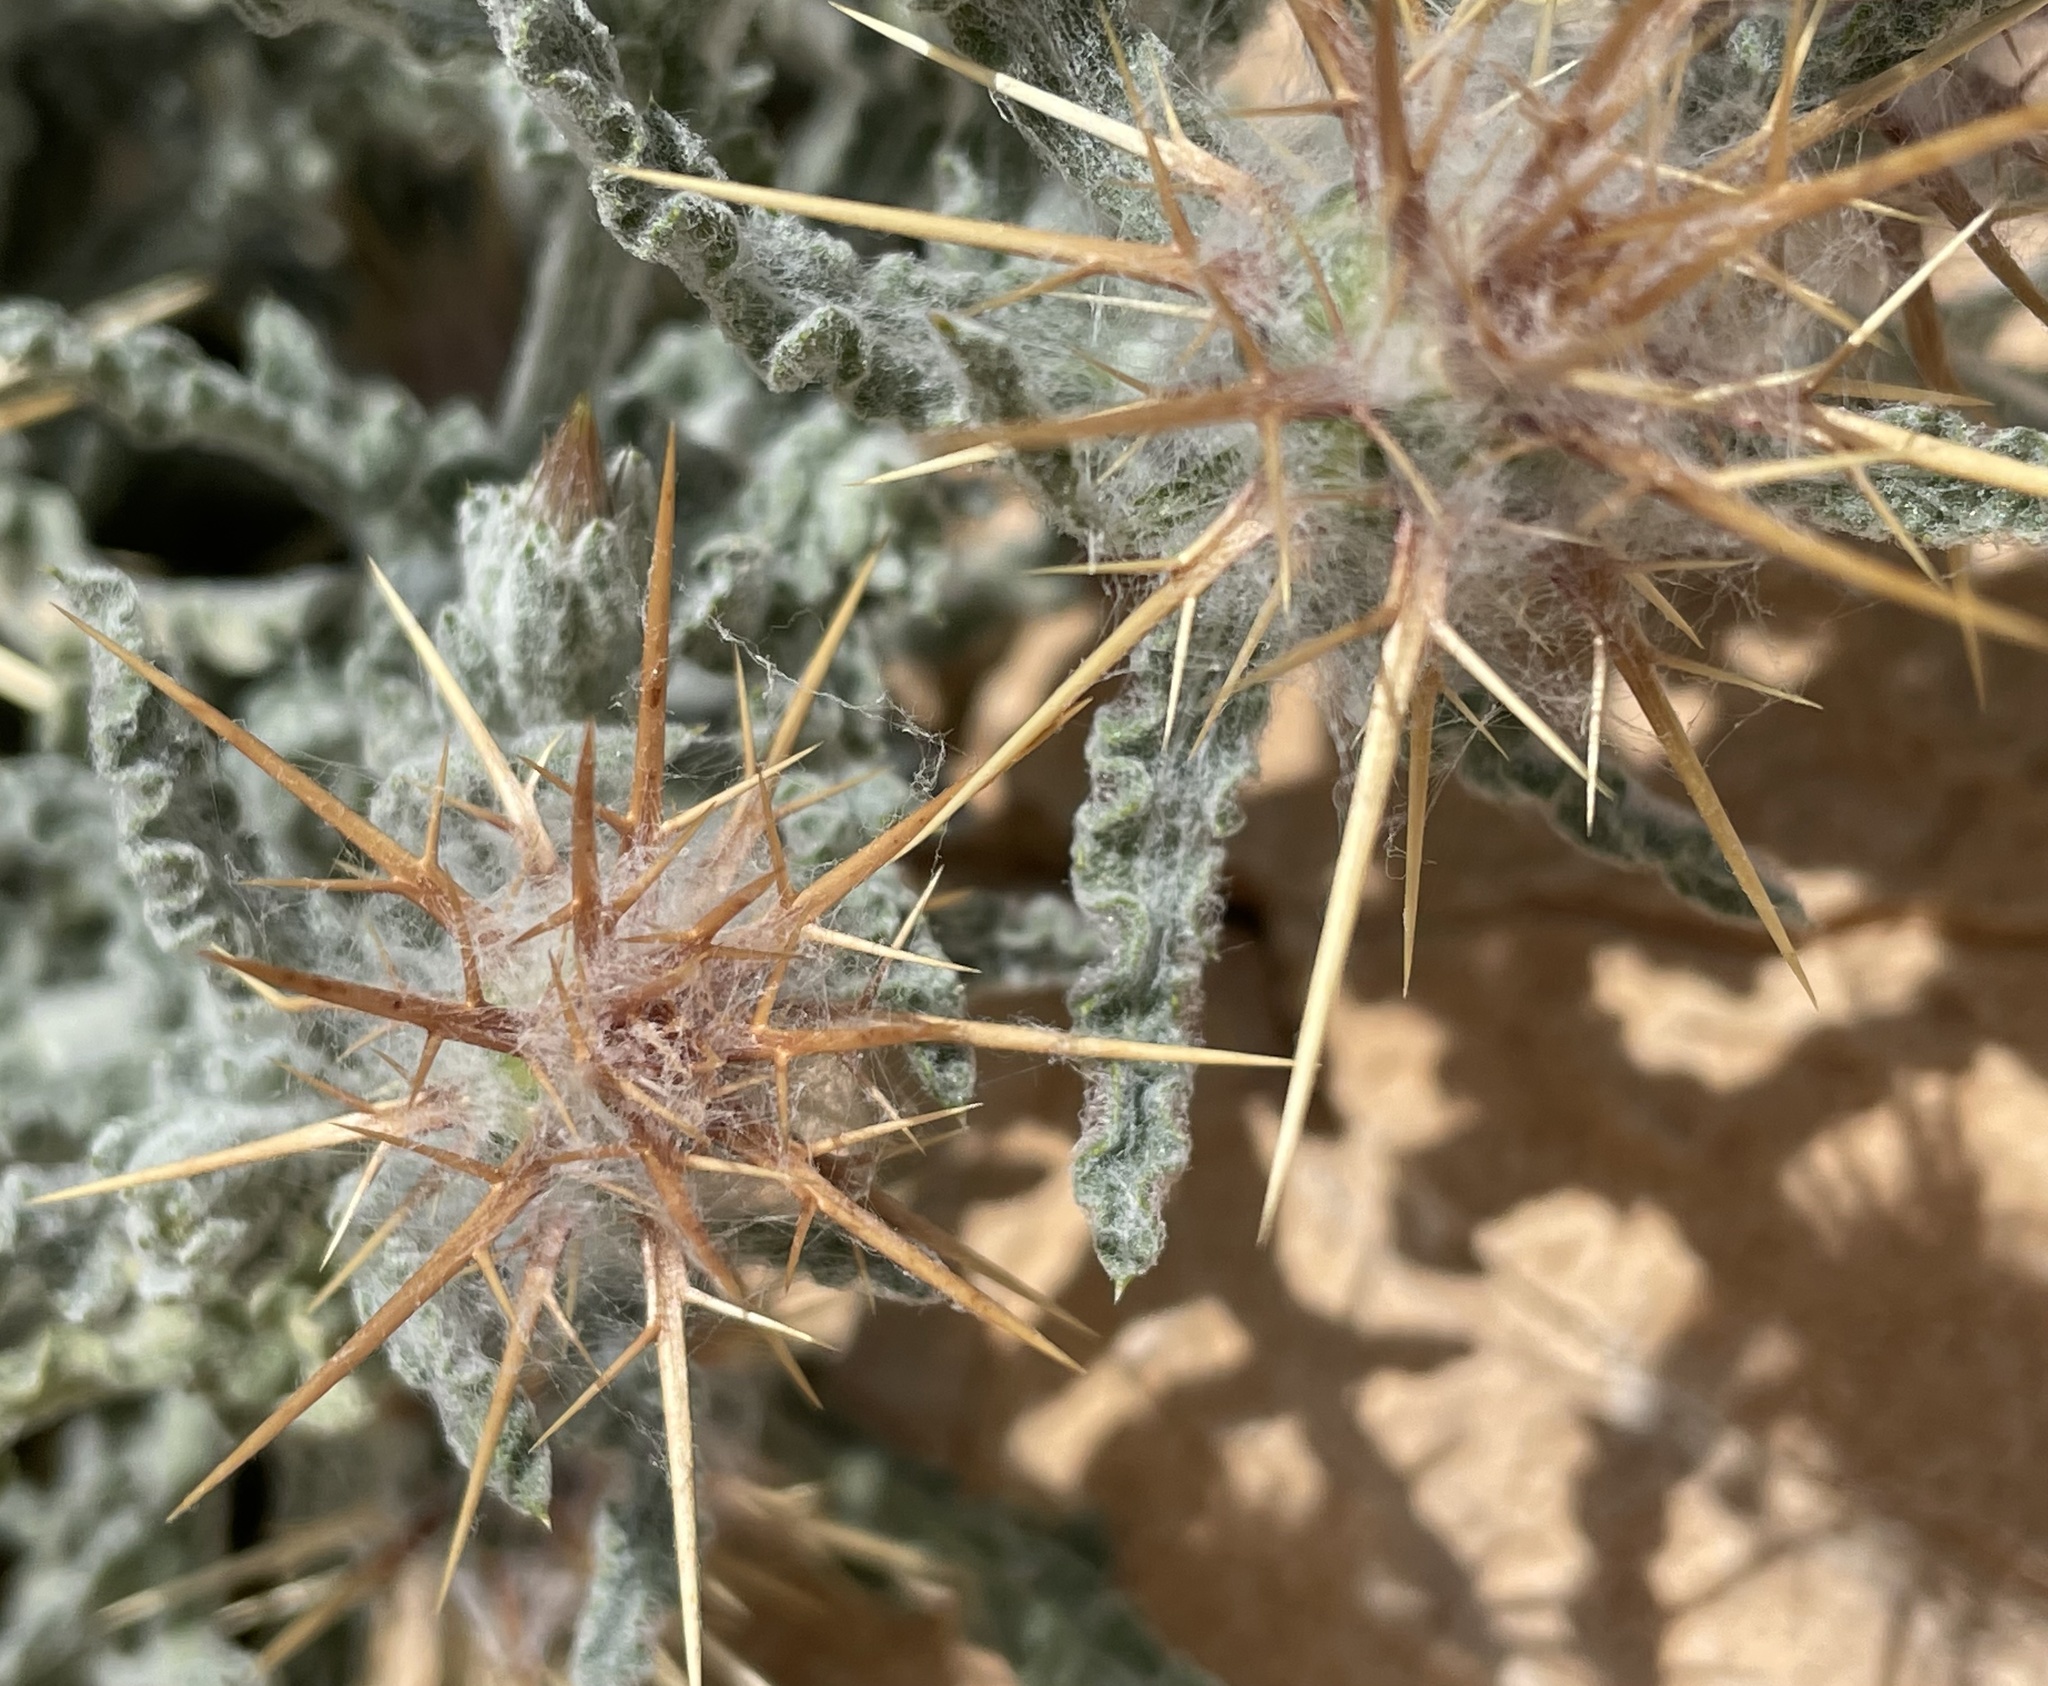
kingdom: Plantae
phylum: Tracheophyta
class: Magnoliopsida
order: Asterales
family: Asteraceae
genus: Centaurea
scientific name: Centaurea aegyptiaca
